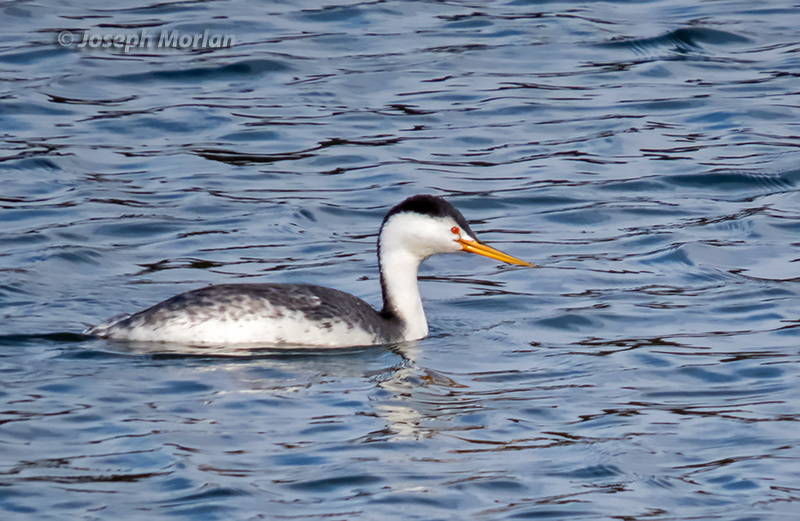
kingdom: Animalia
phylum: Chordata
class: Aves
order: Podicipediformes
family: Podicipedidae
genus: Aechmophorus
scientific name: Aechmophorus clarkii
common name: Clark's grebe
